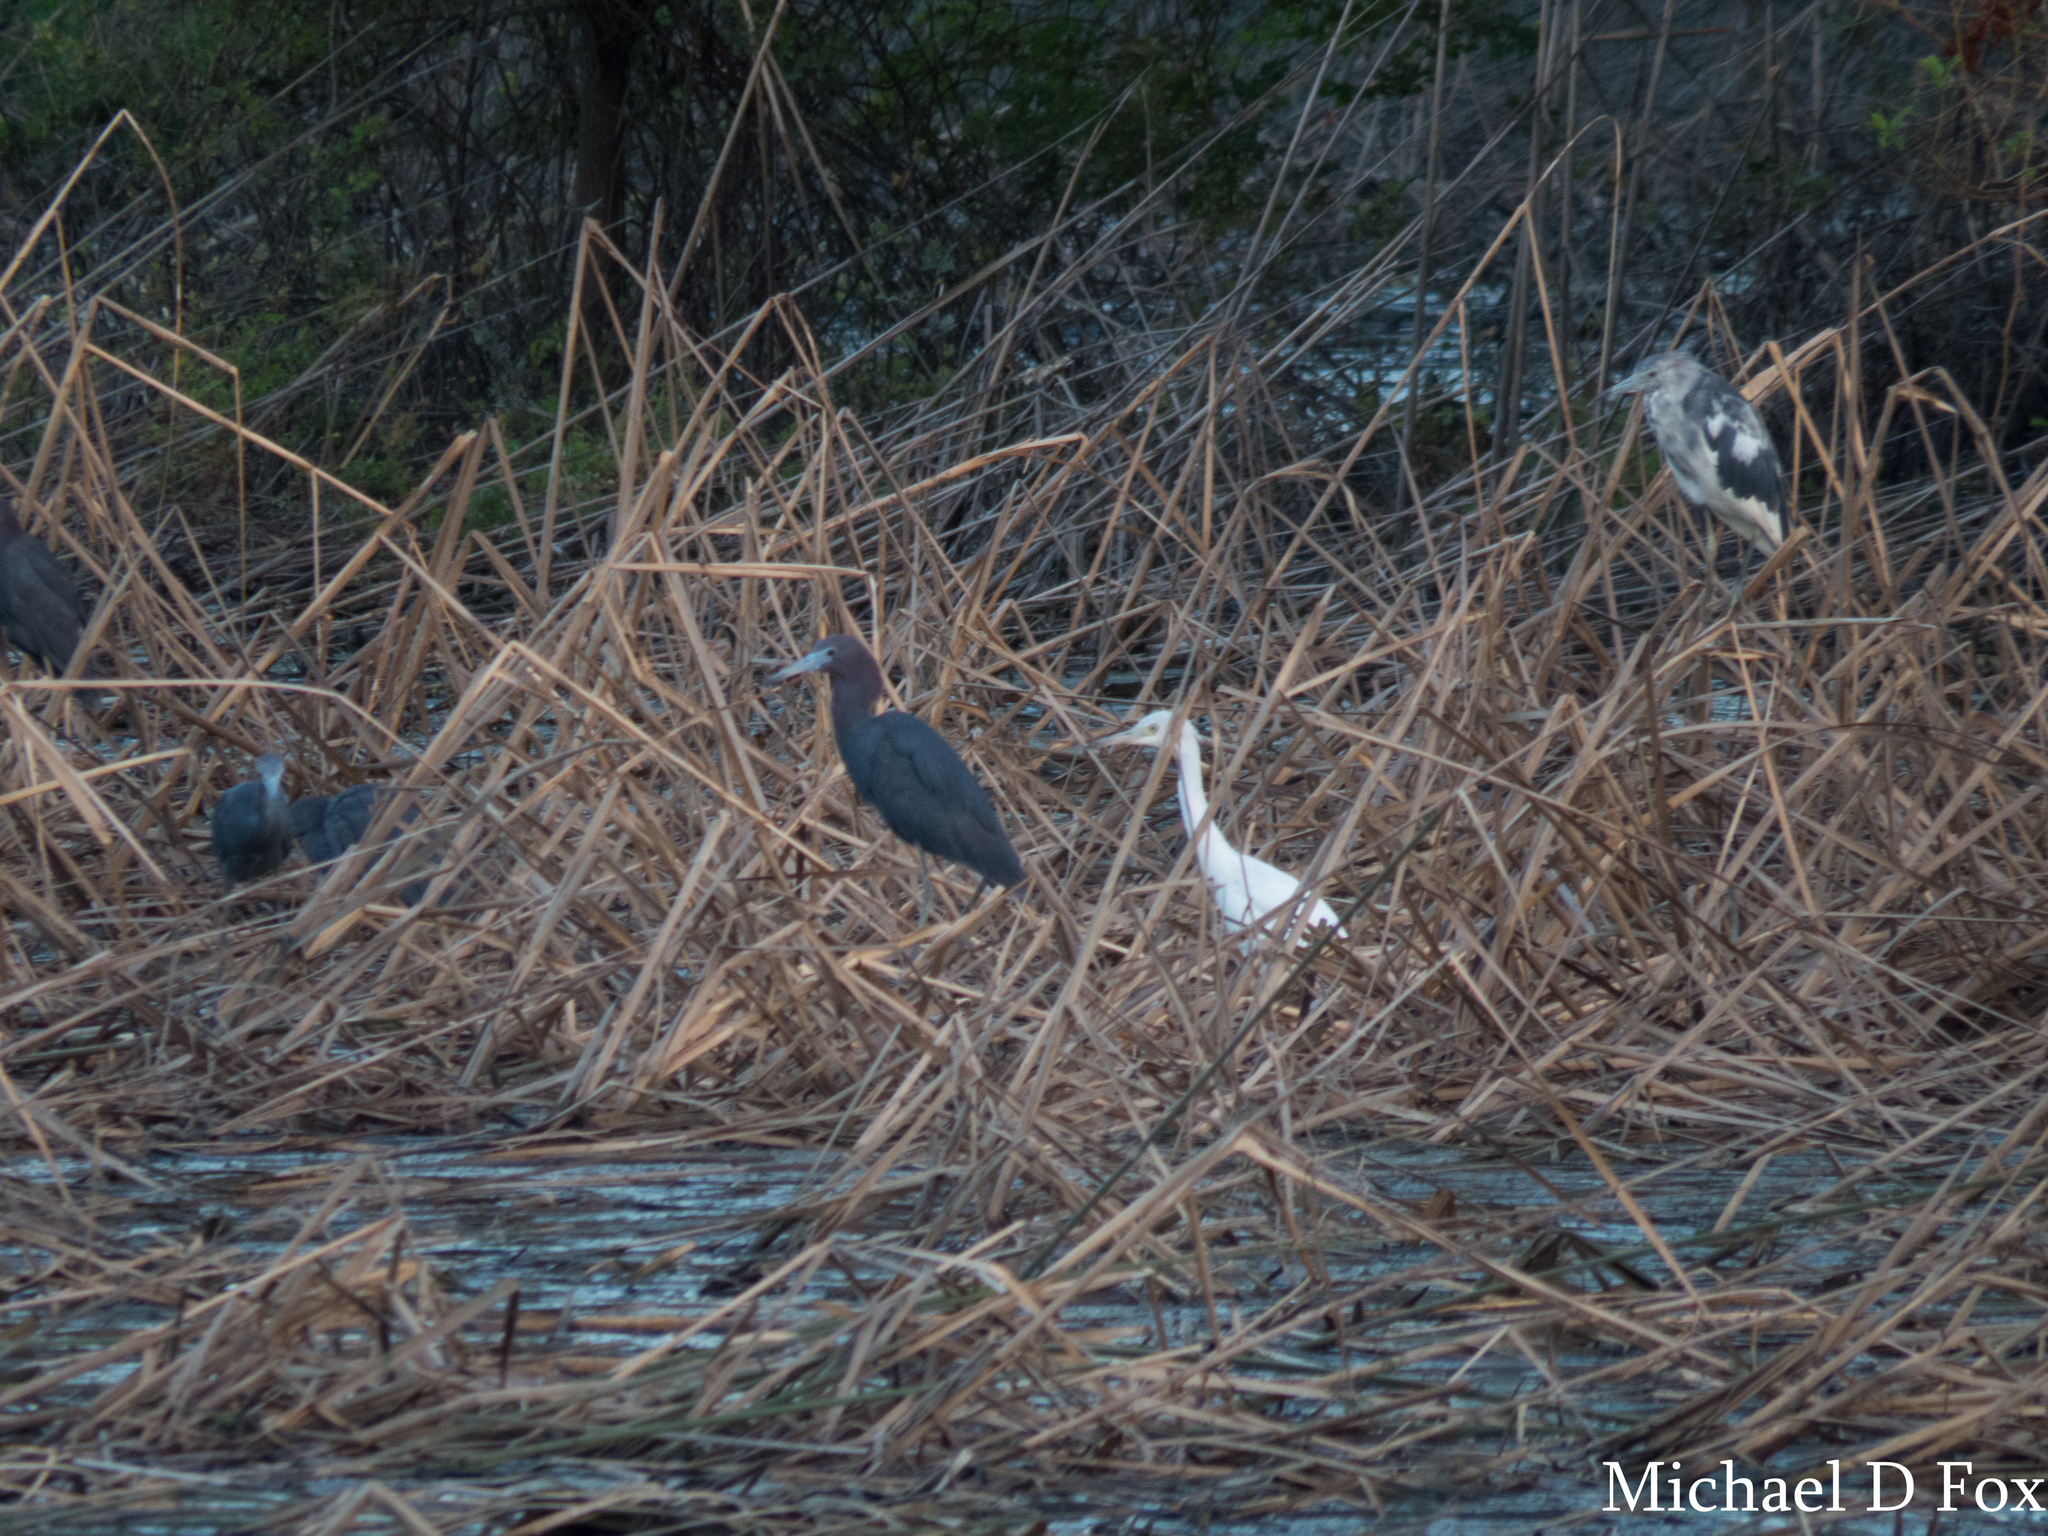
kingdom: Animalia
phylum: Chordata
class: Aves
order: Pelecaniformes
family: Ardeidae
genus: Egretta
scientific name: Egretta caerulea
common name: Little blue heron
